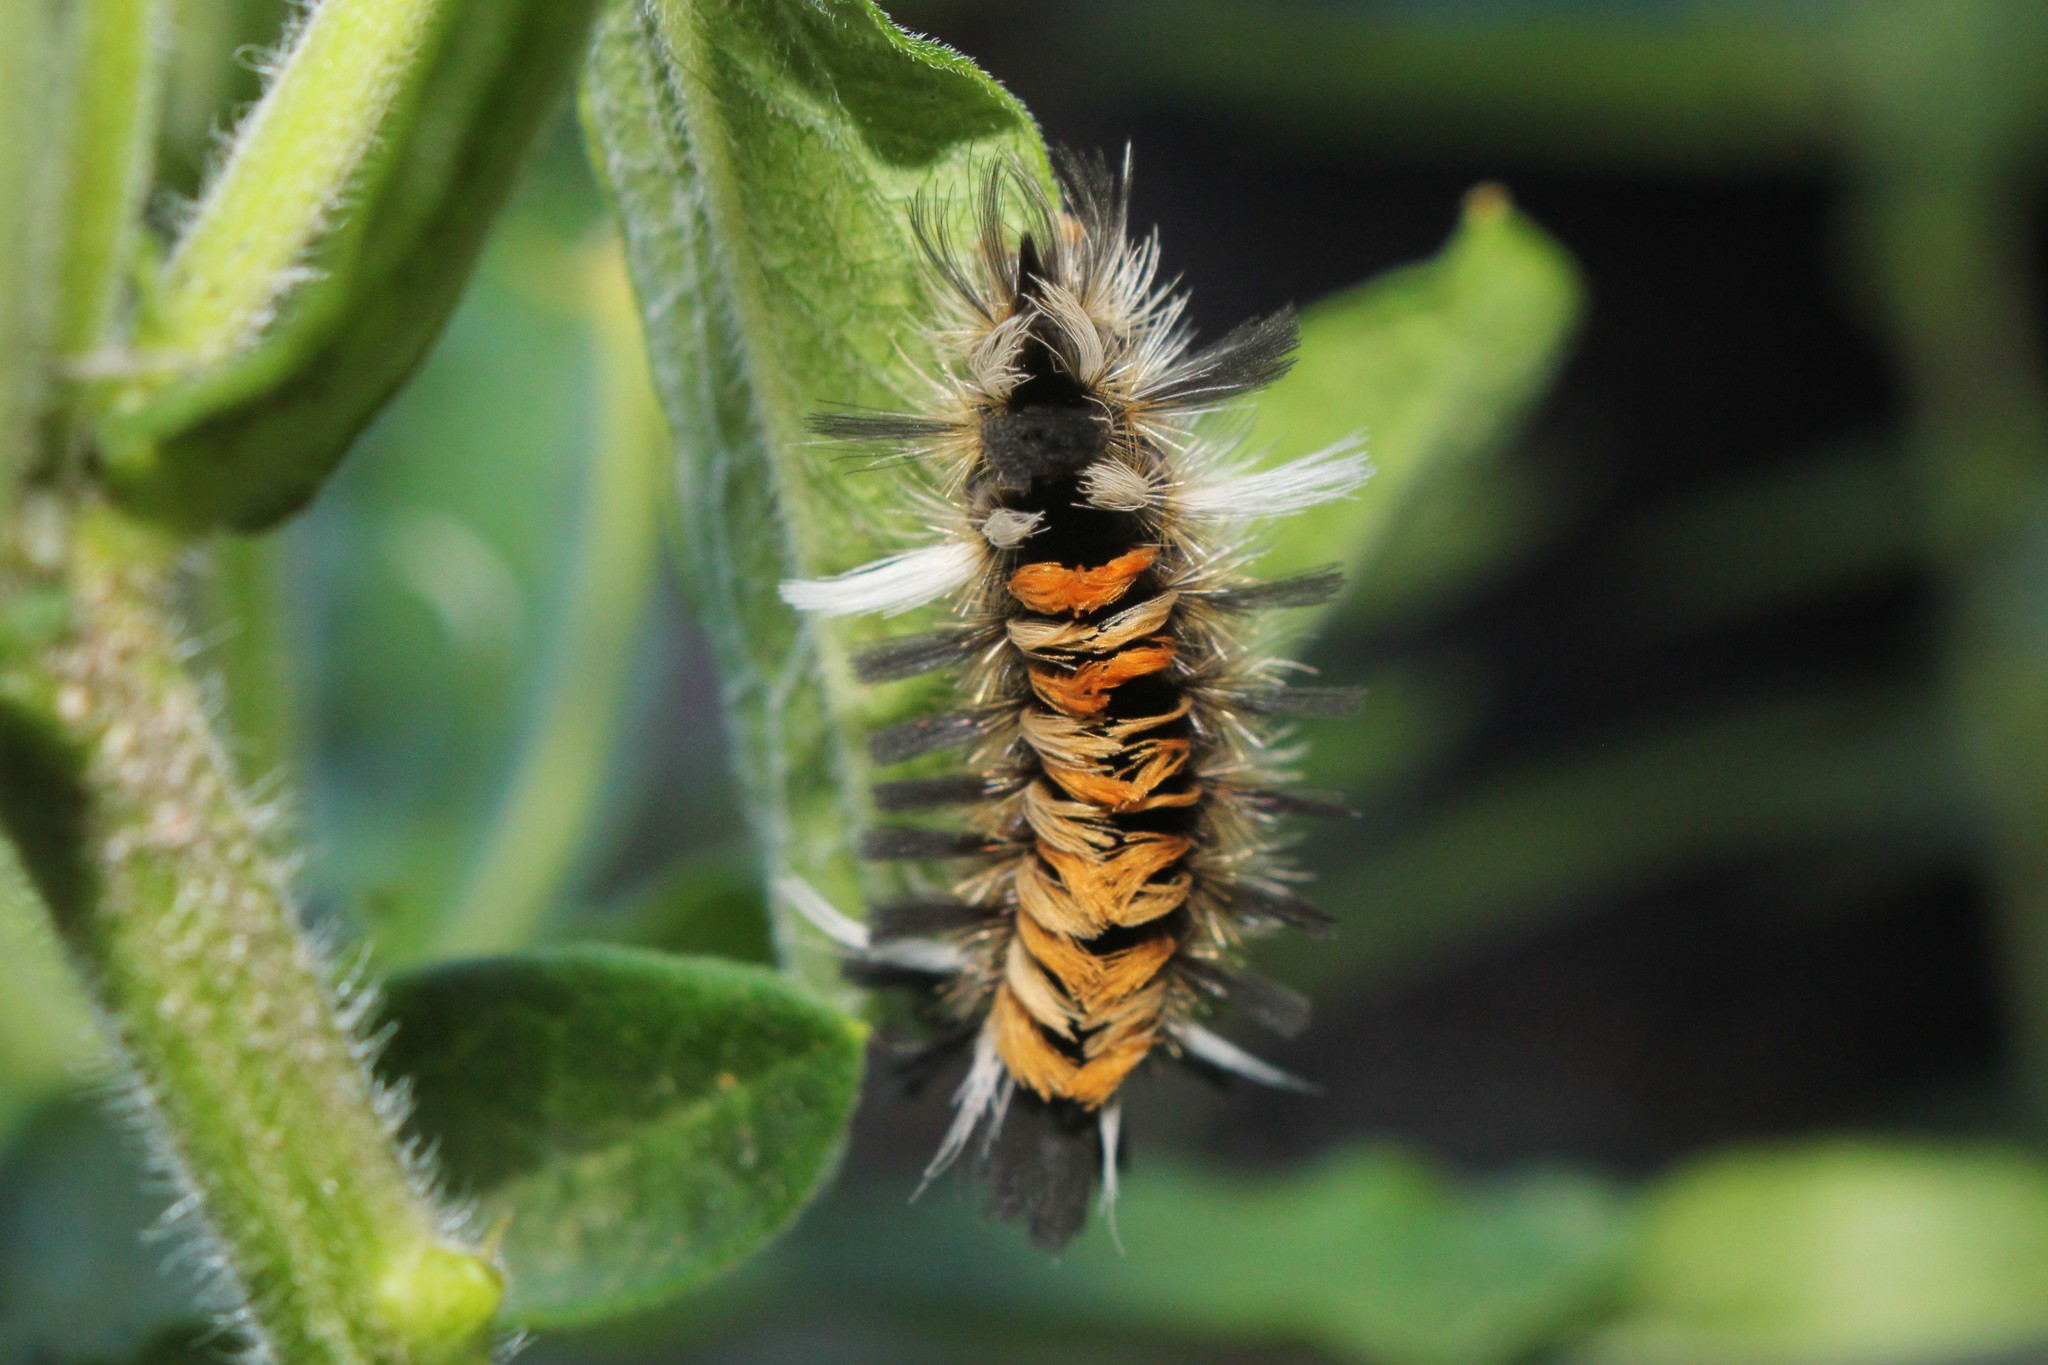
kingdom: Animalia
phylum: Arthropoda
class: Insecta
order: Lepidoptera
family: Erebidae
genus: Euchaetes
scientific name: Euchaetes egle
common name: Milkweed tussock moth
